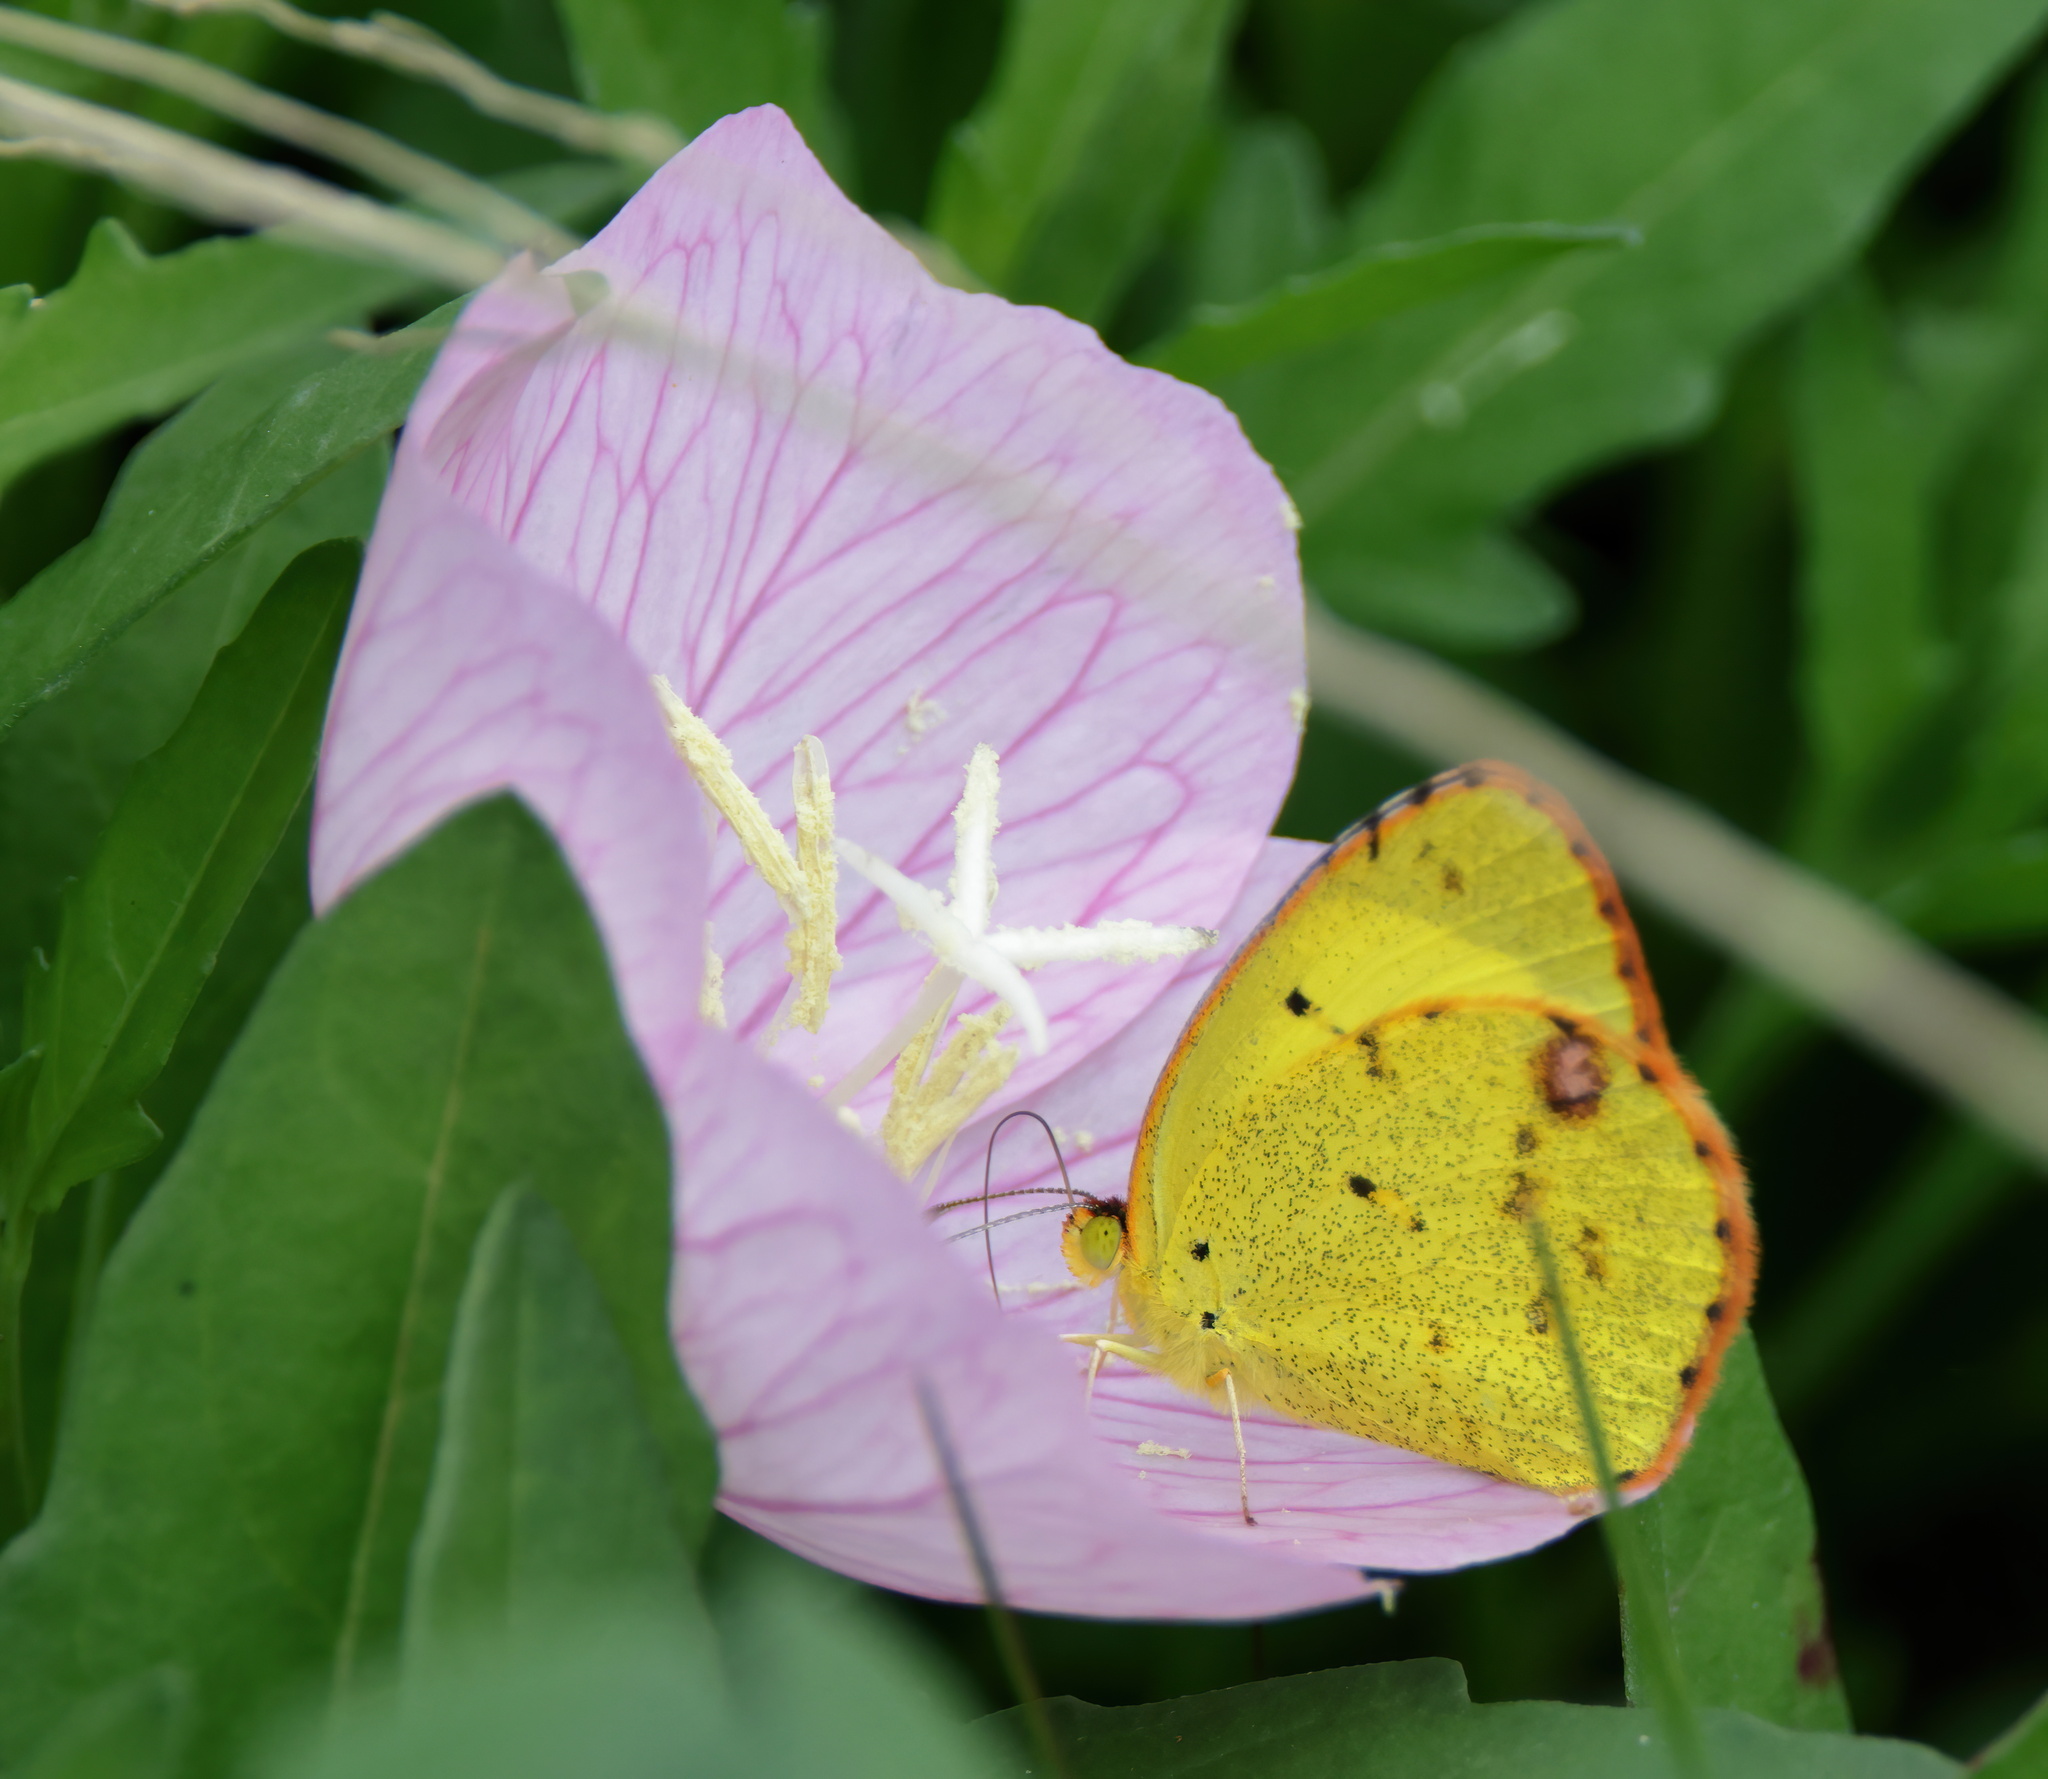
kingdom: Animalia
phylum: Arthropoda
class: Insecta
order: Lepidoptera
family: Pieridae
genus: Pyrisitia
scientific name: Pyrisitia lisa
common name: Little yellow
